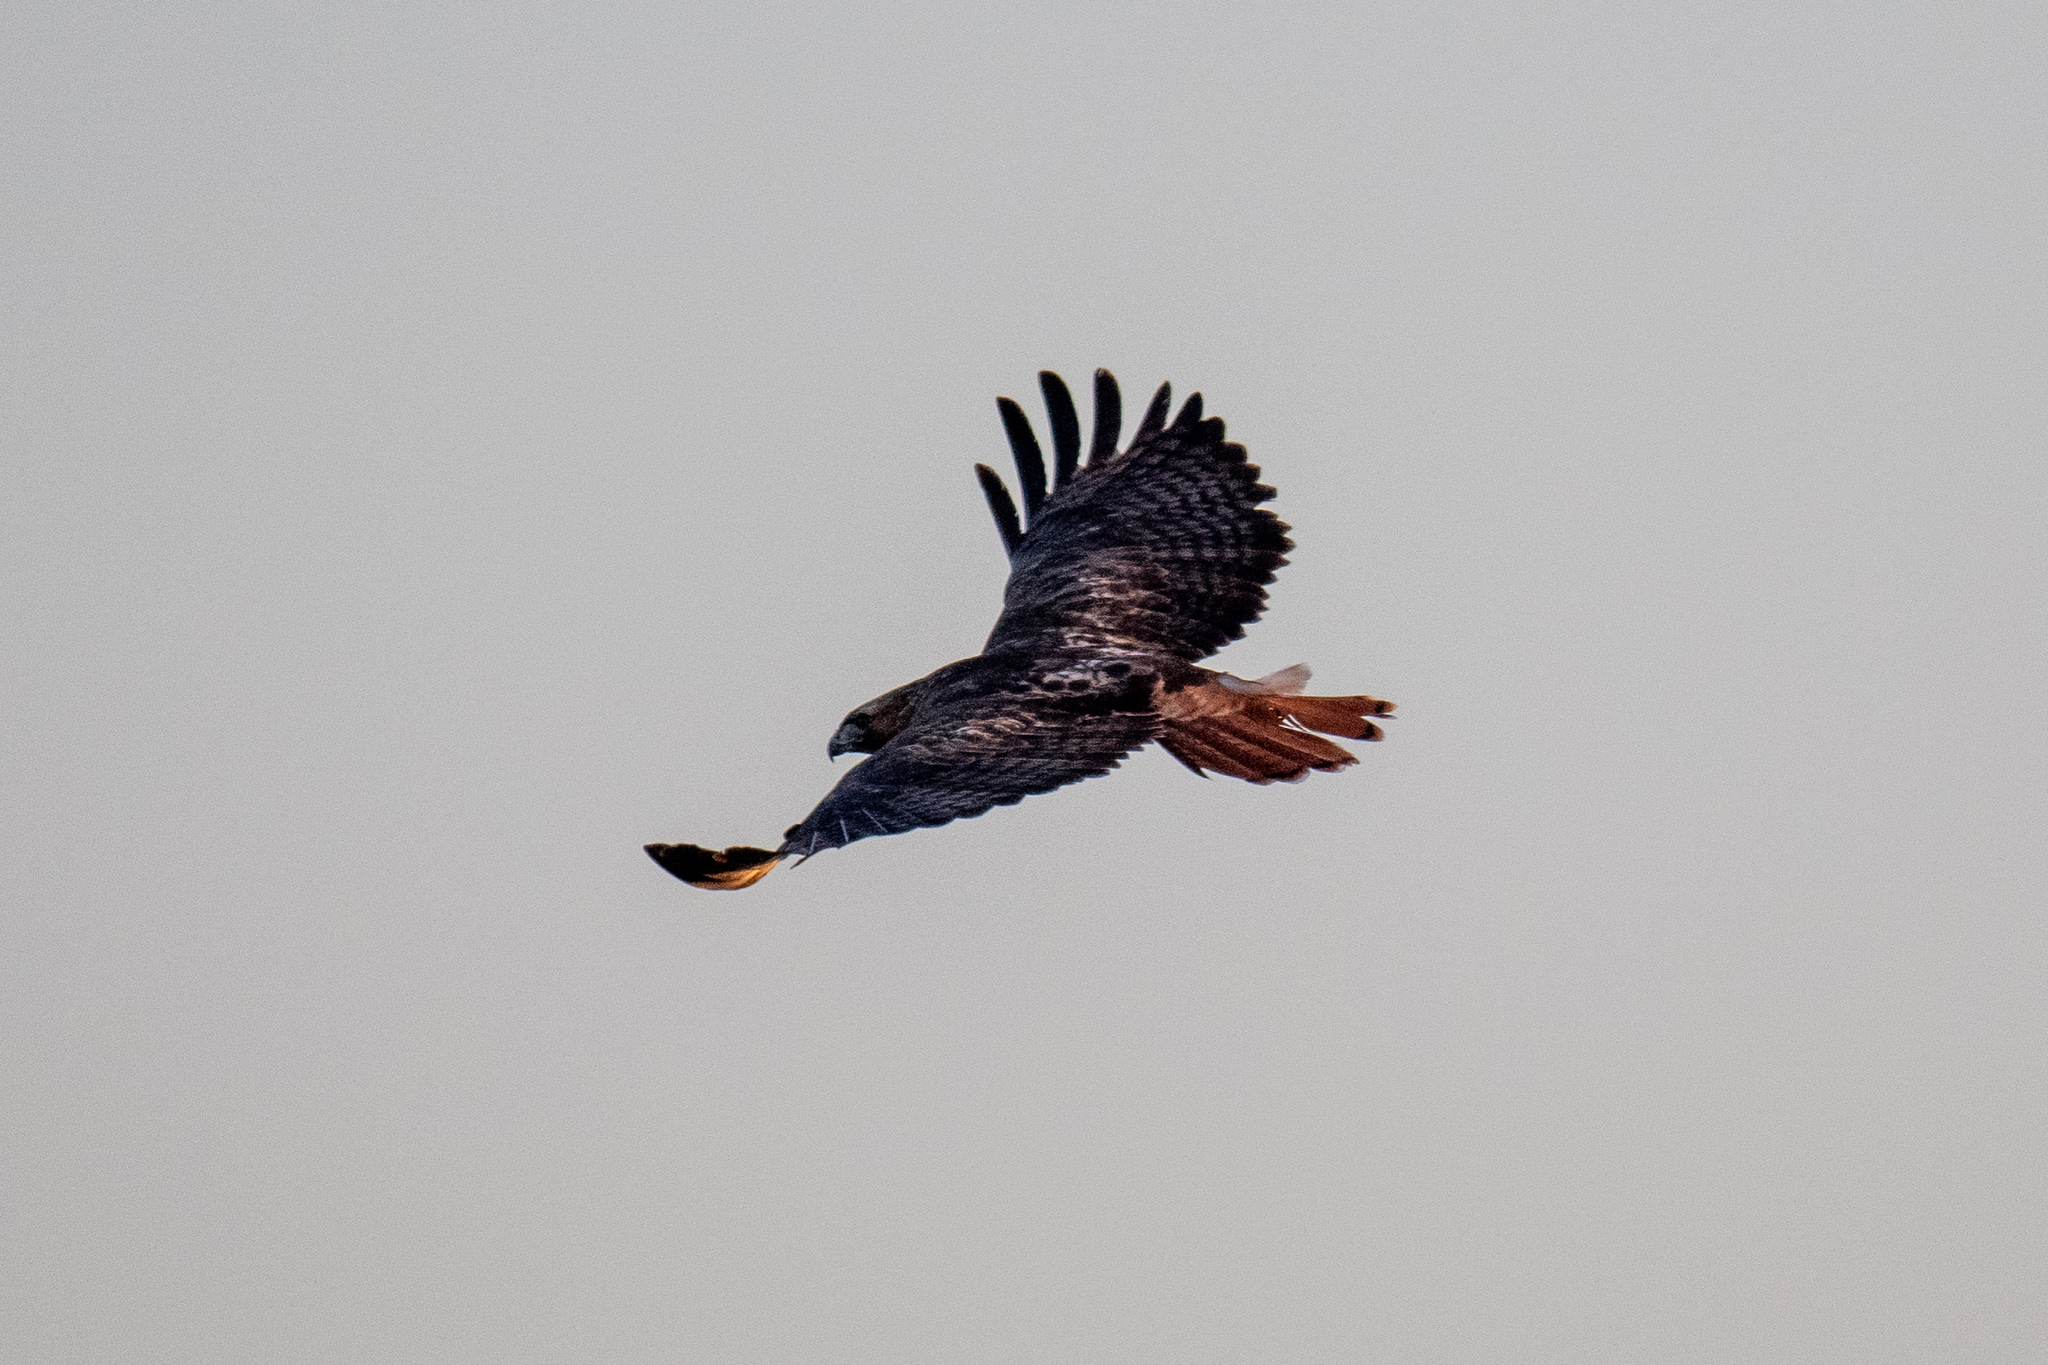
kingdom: Animalia
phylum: Chordata
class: Aves
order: Accipitriformes
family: Accipitridae
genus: Buteo
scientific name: Buteo jamaicensis
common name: Red-tailed hawk
